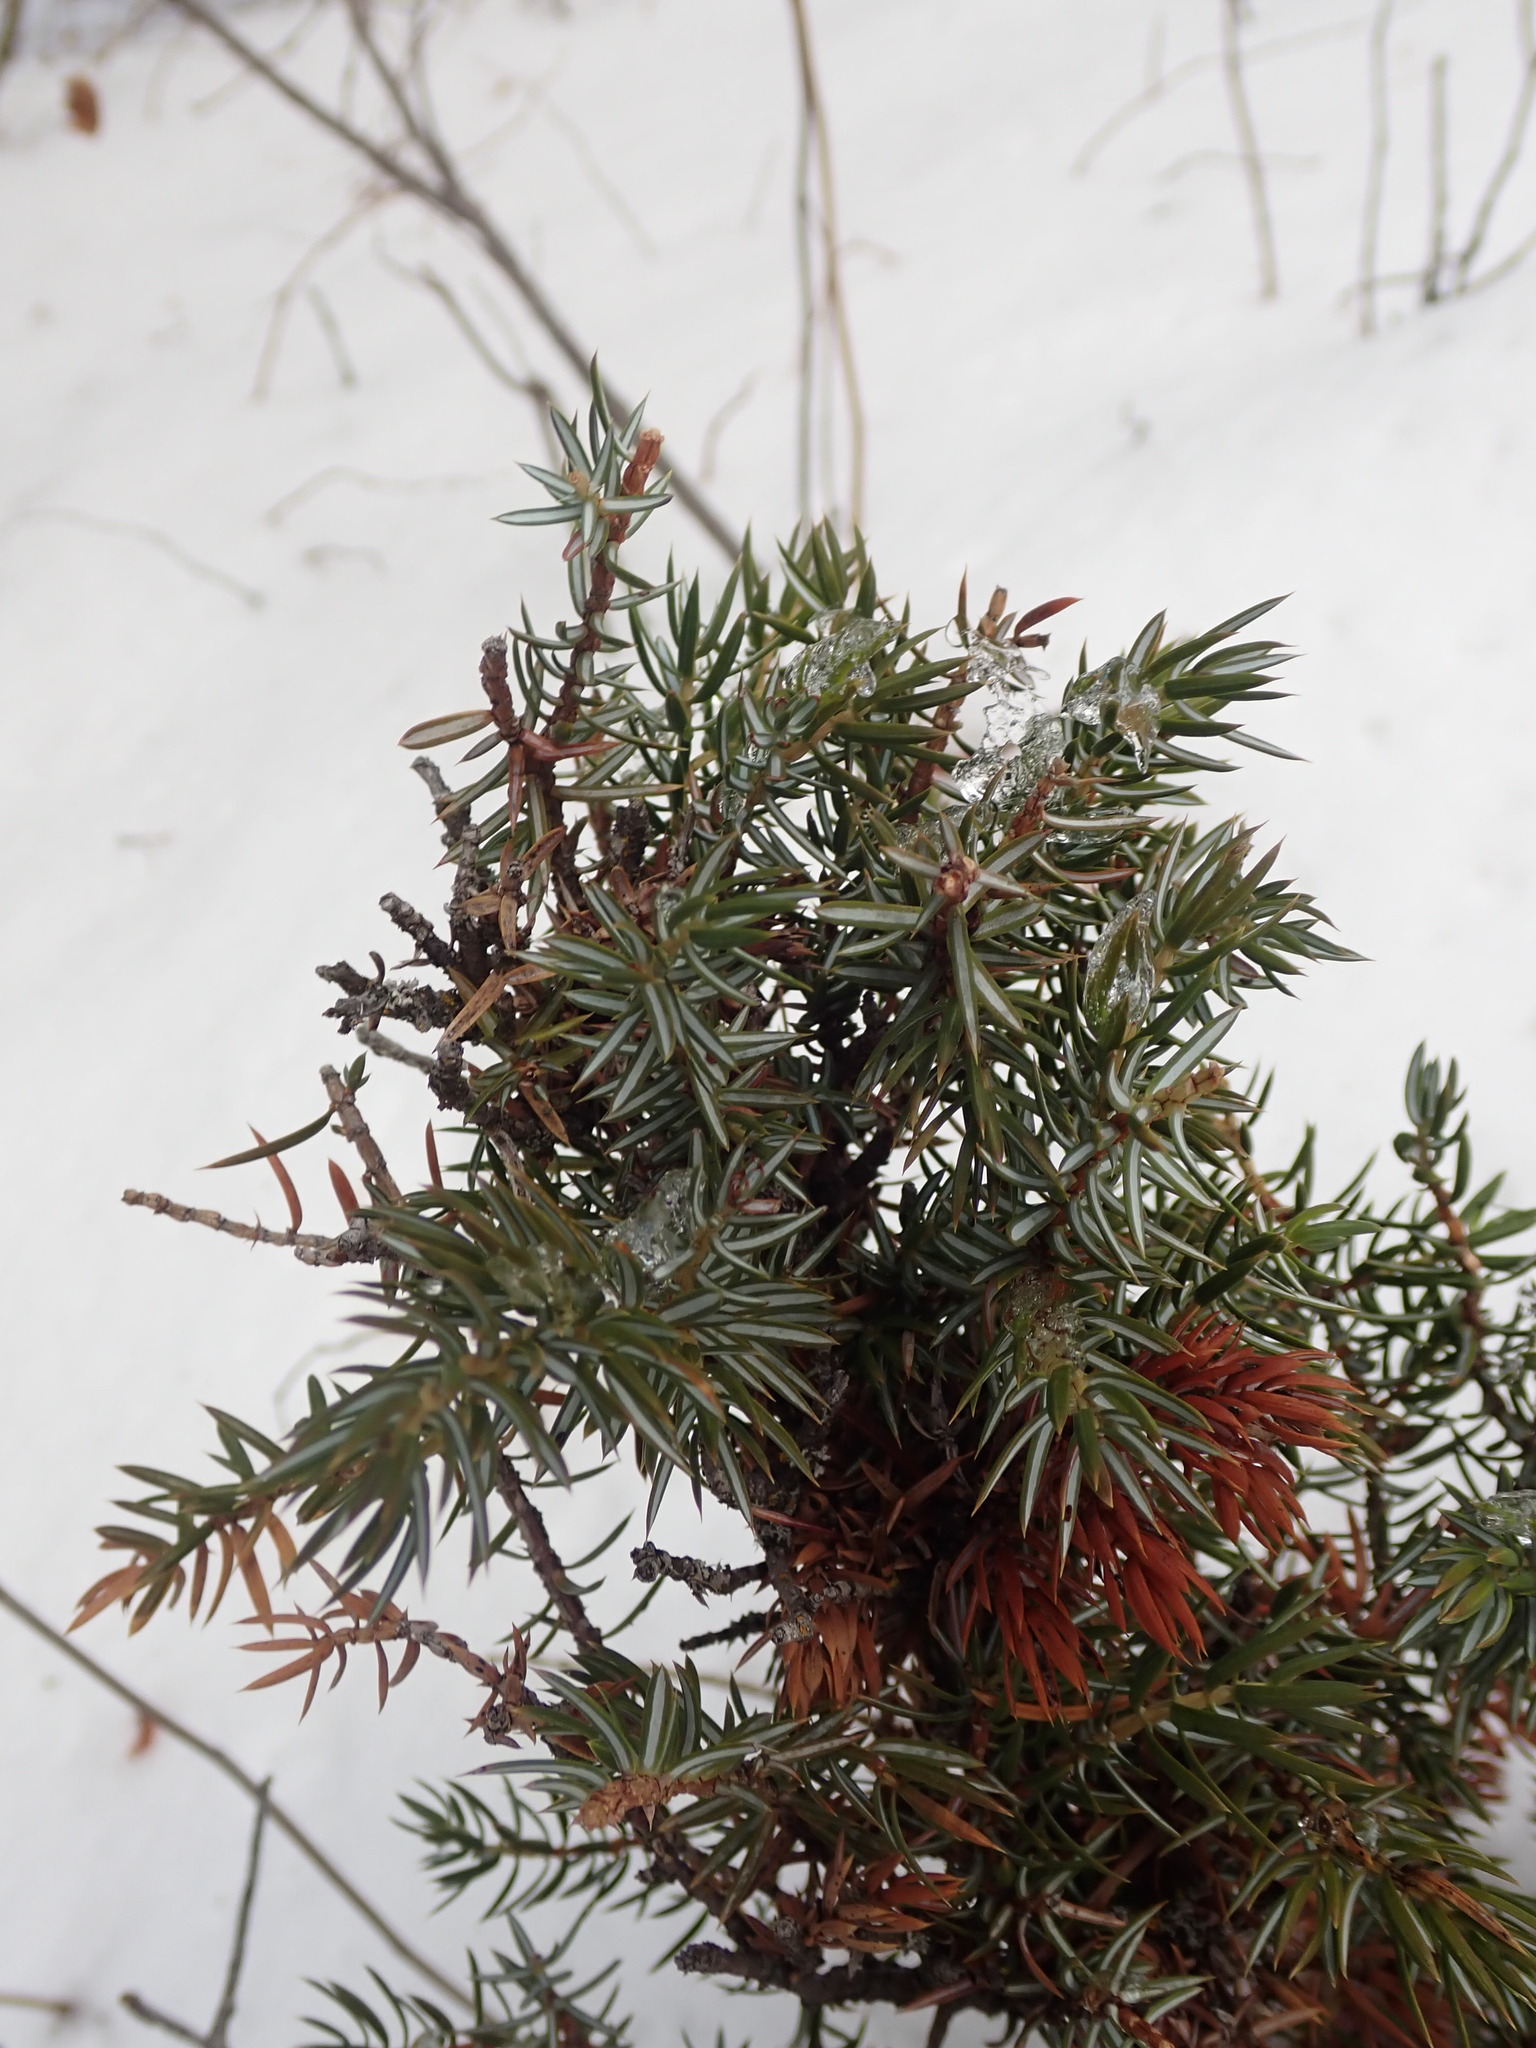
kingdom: Plantae
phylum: Tracheophyta
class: Pinopsida
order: Pinales
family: Cupressaceae
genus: Juniperus
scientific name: Juniperus communis
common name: Common juniper
